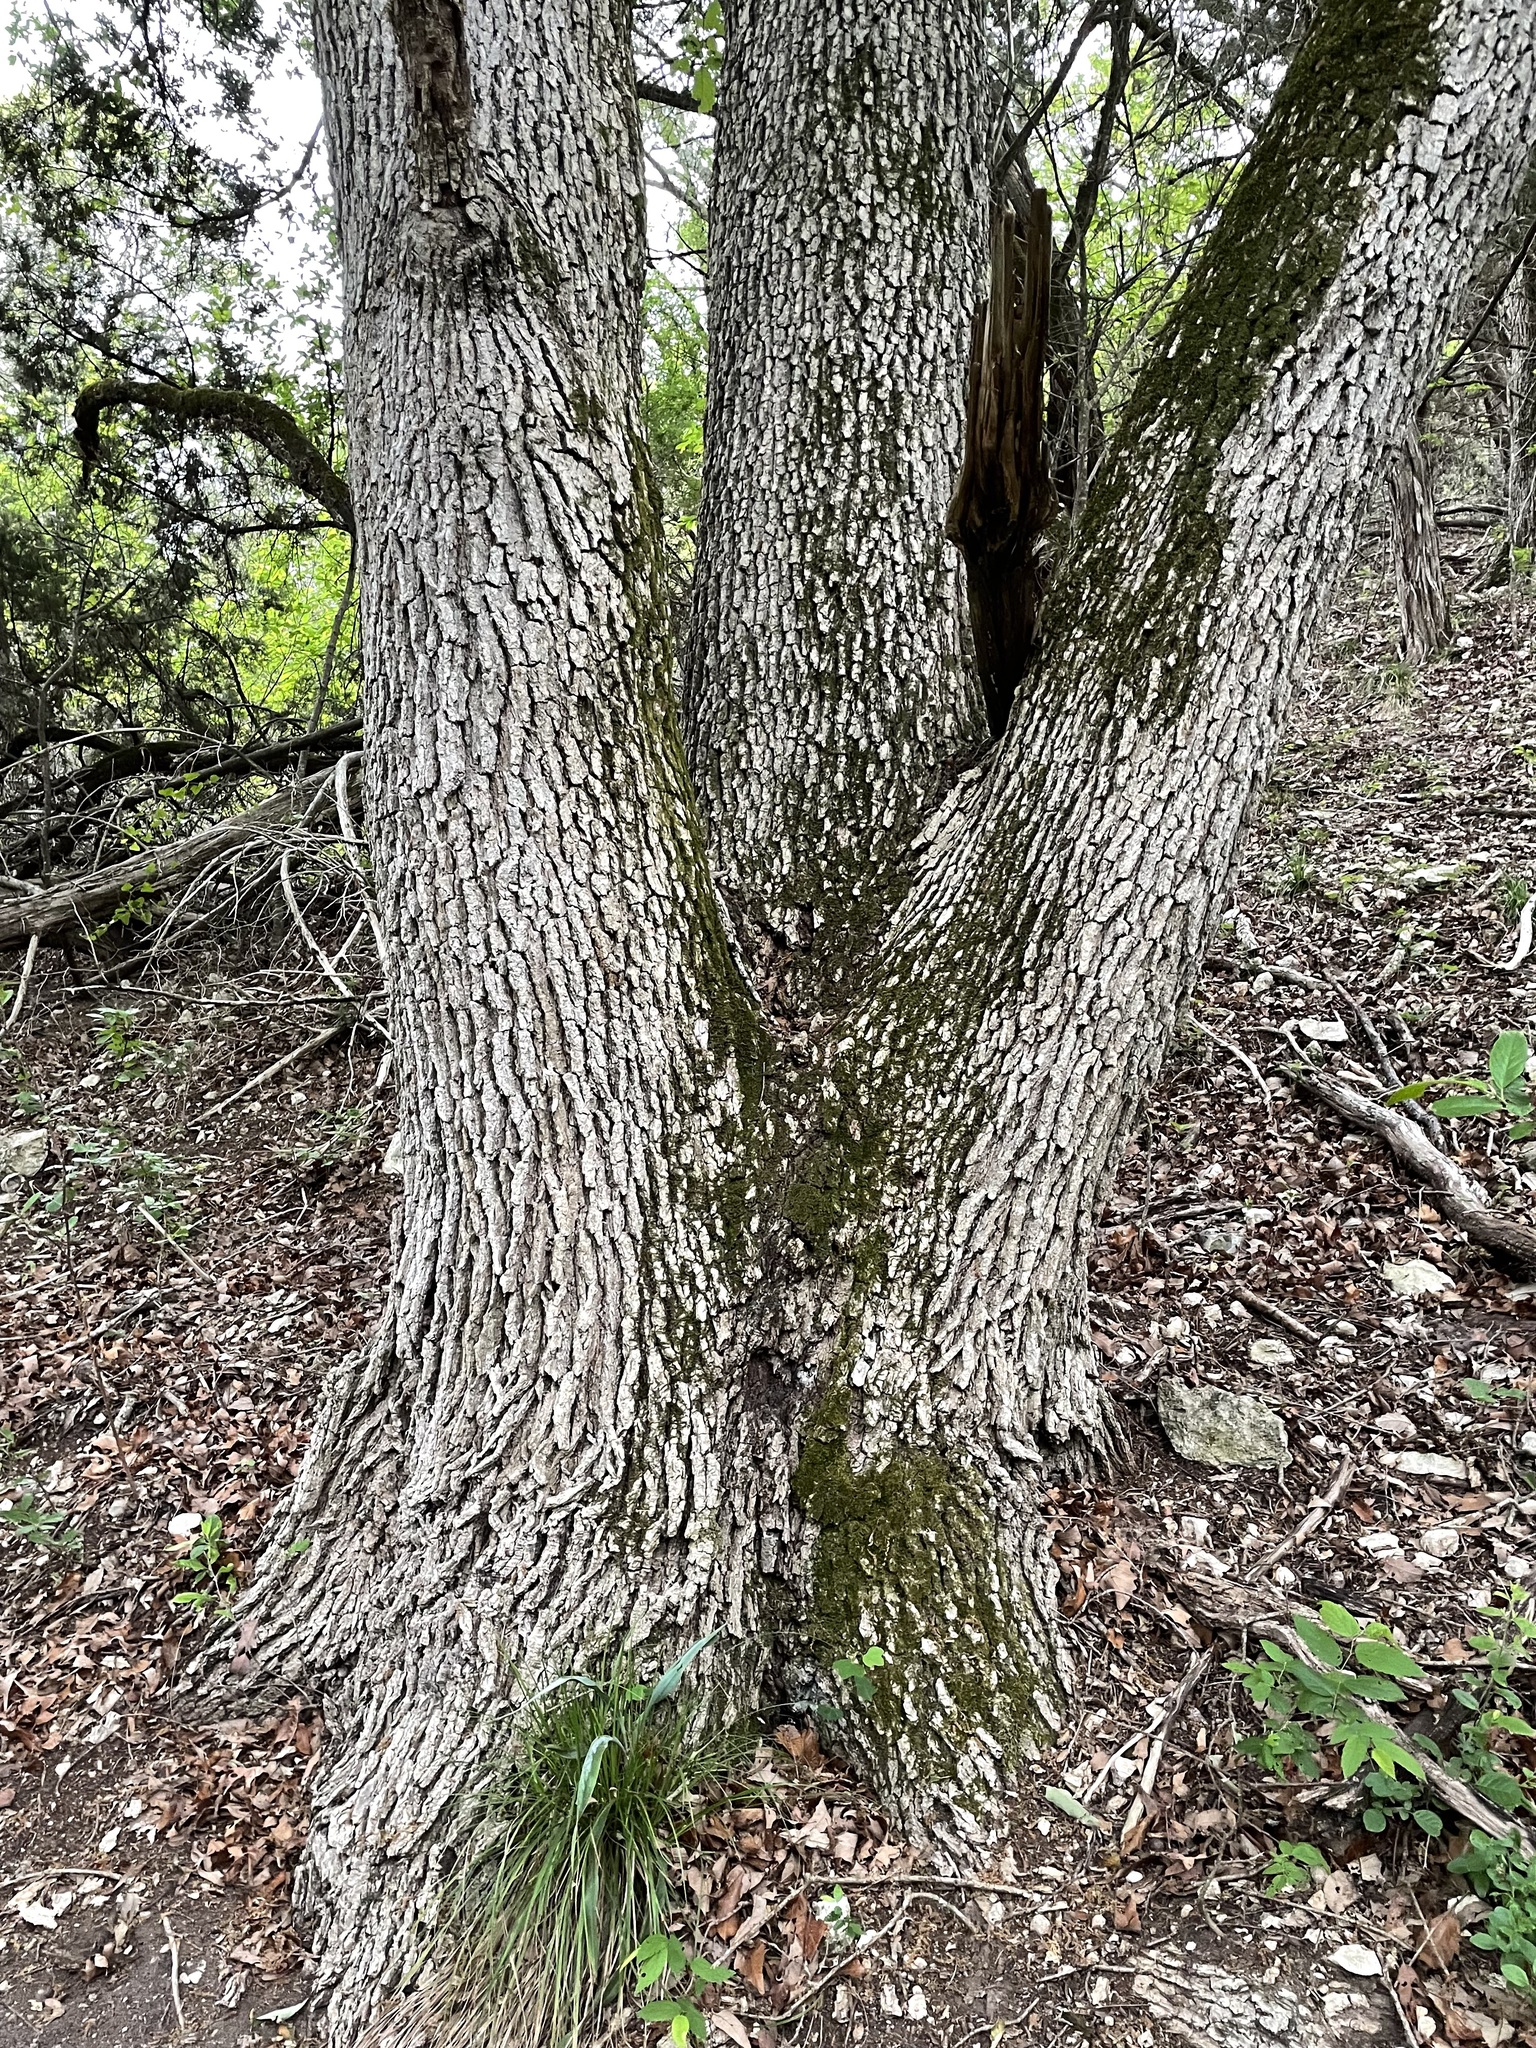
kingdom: Plantae
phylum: Tracheophyta
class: Magnoliopsida
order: Fagales
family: Fagaceae
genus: Quercus
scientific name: Quercus muehlenbergii
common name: Chinkapin oak
